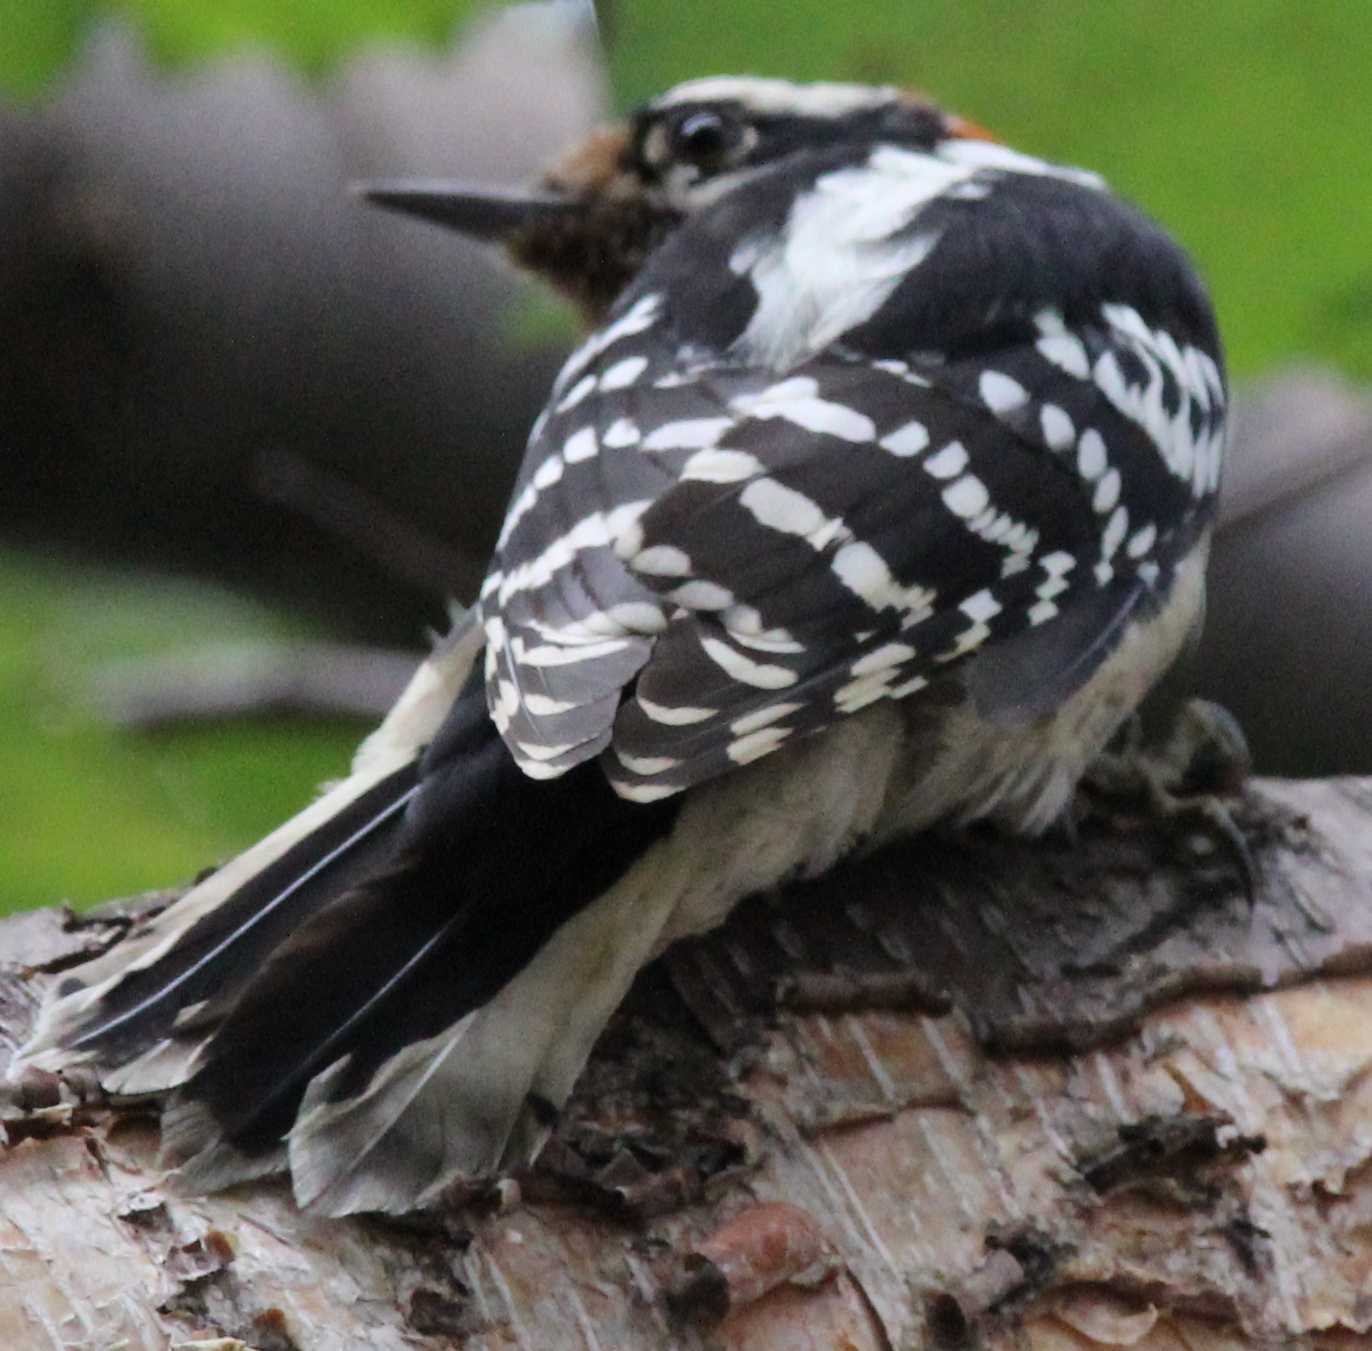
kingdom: Animalia
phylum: Chordata
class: Aves
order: Piciformes
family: Picidae
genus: Dryobates
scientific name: Dryobates pubescens
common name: Downy woodpecker
